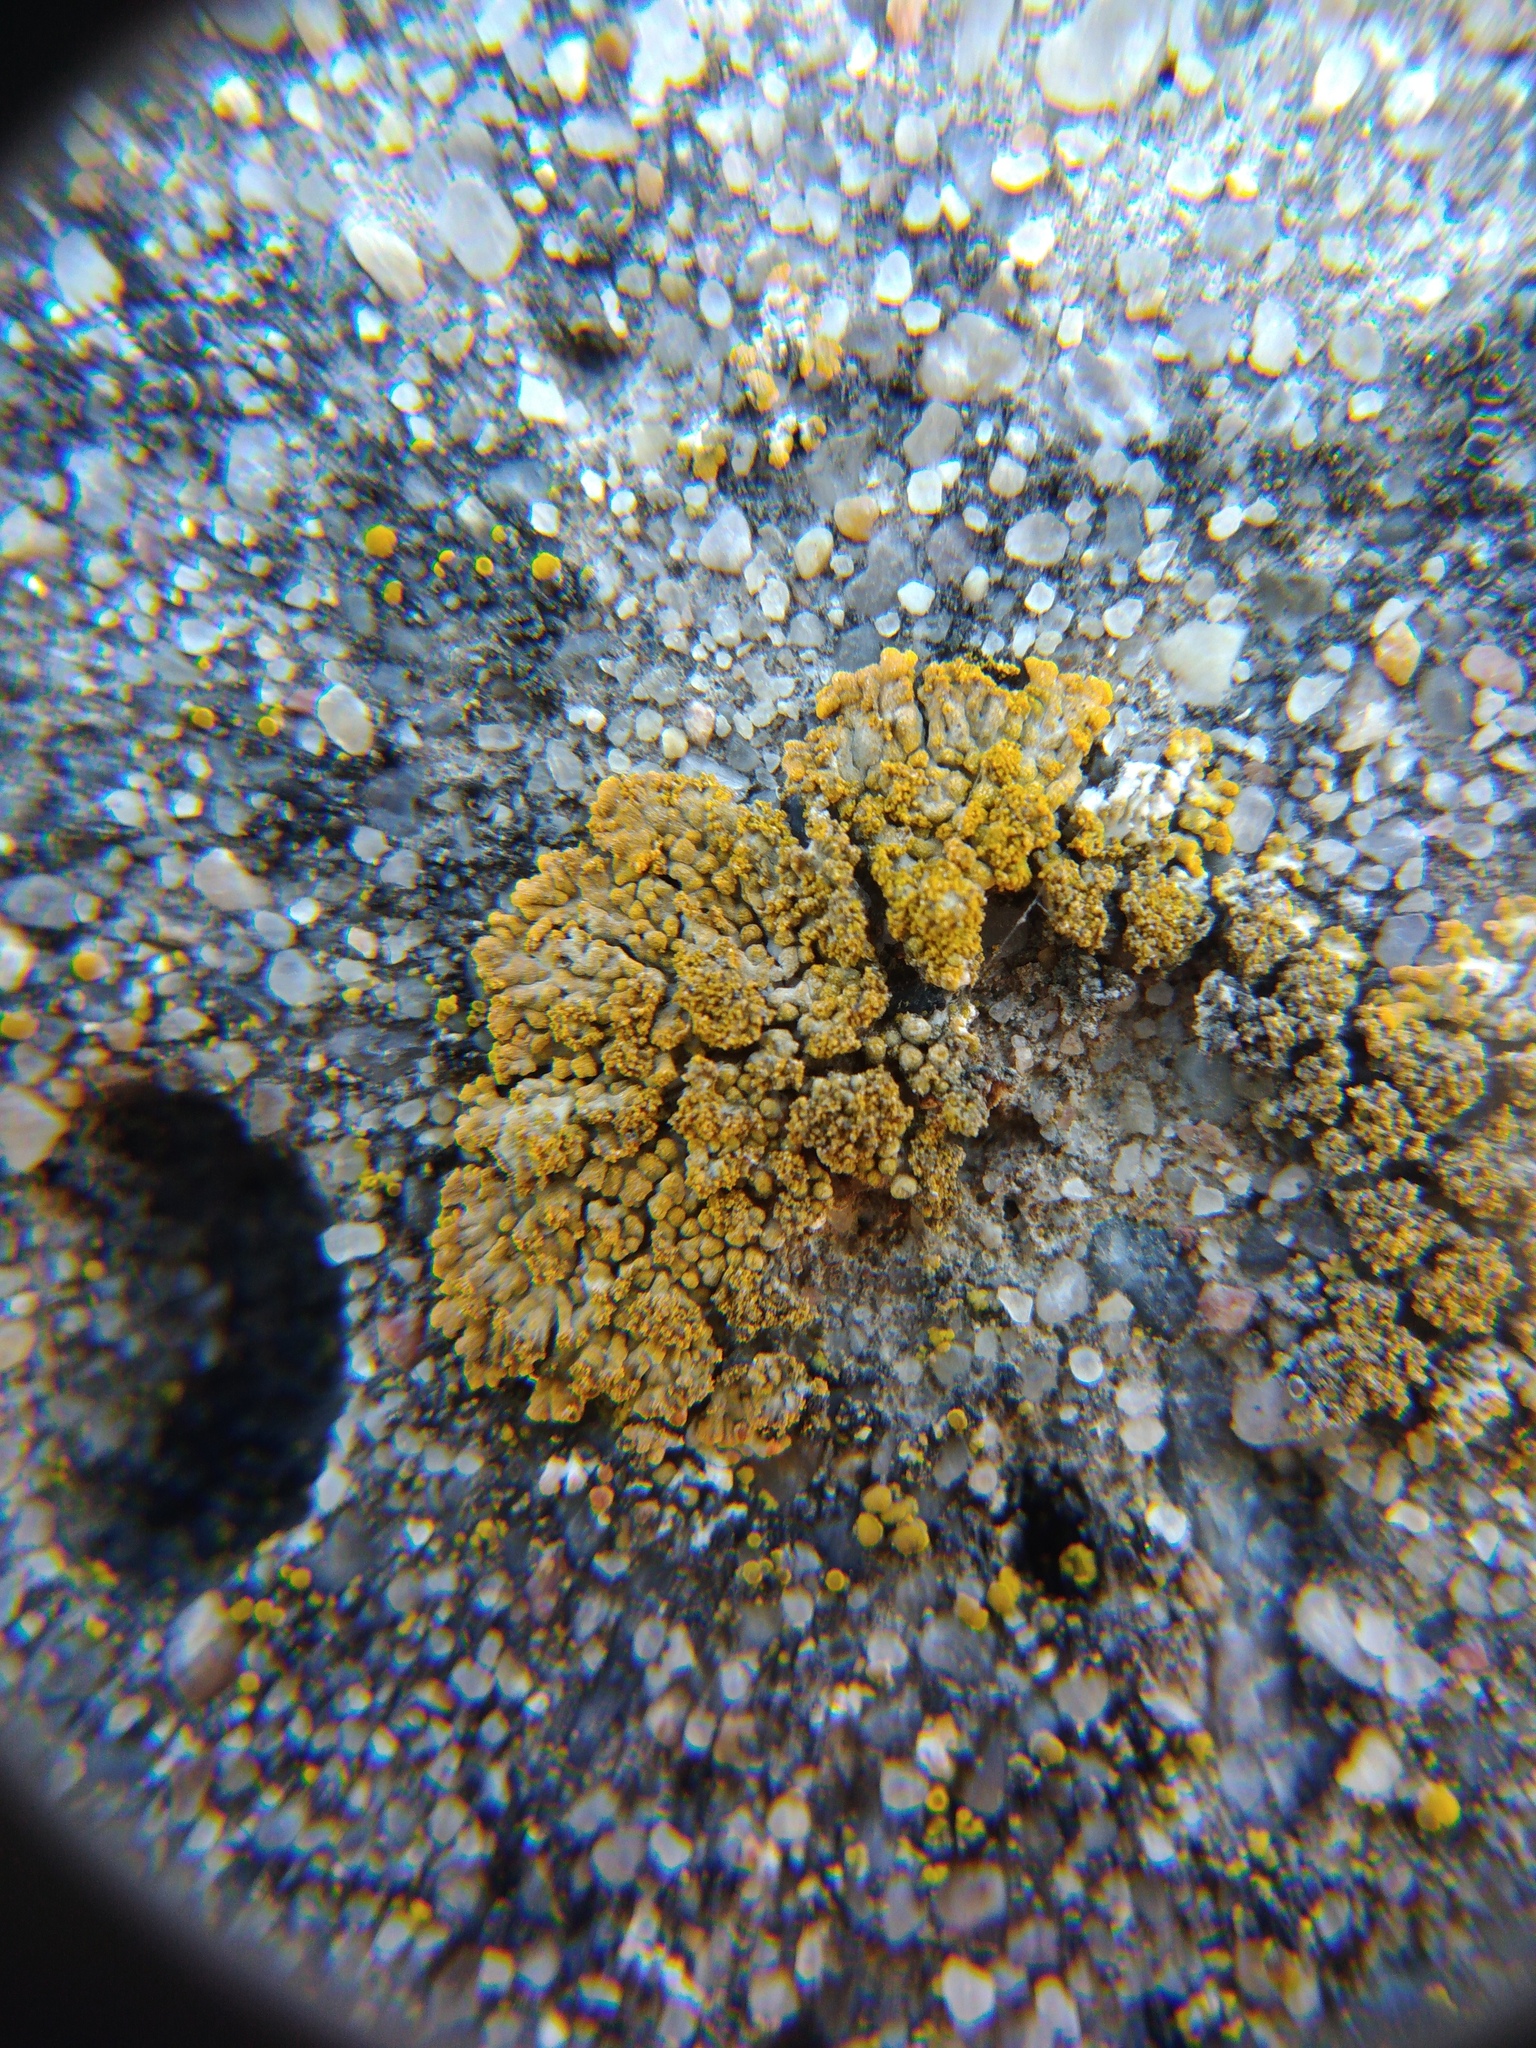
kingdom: Fungi
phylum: Ascomycota
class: Lecanoromycetes
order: Teloschistales
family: Teloschistaceae
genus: Calogaya
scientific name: Calogaya decipiens
